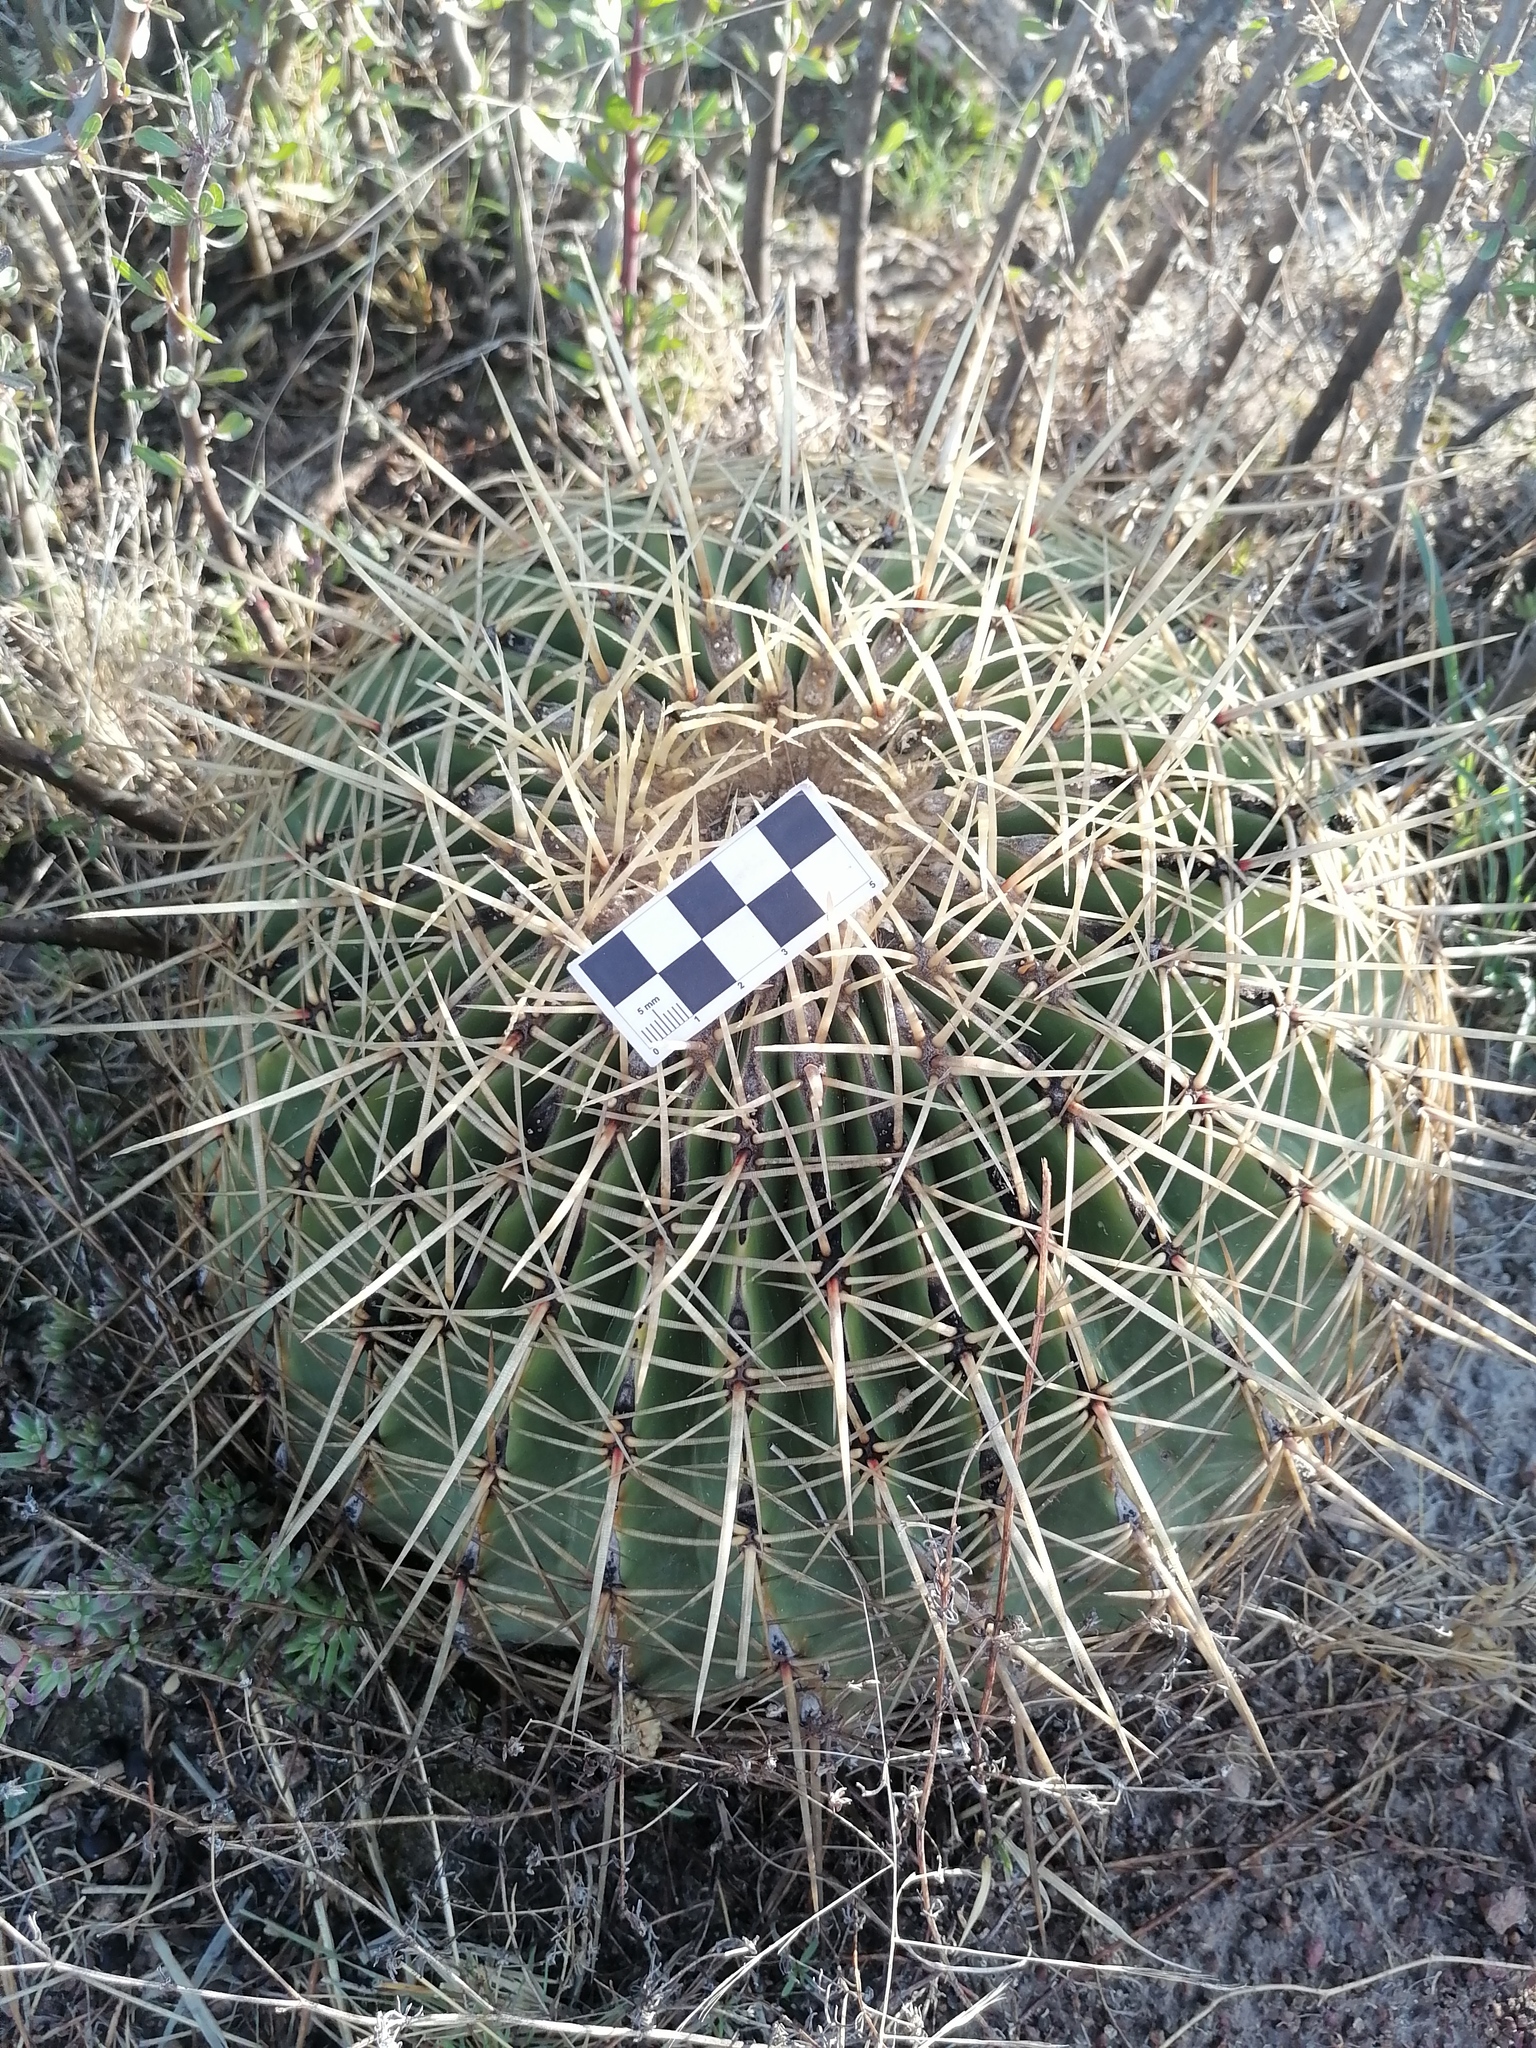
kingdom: Plantae
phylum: Tracheophyta
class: Magnoliopsida
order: Caryophyllales
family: Cactaceae
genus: Bisnaga
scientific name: Bisnaga histrix
